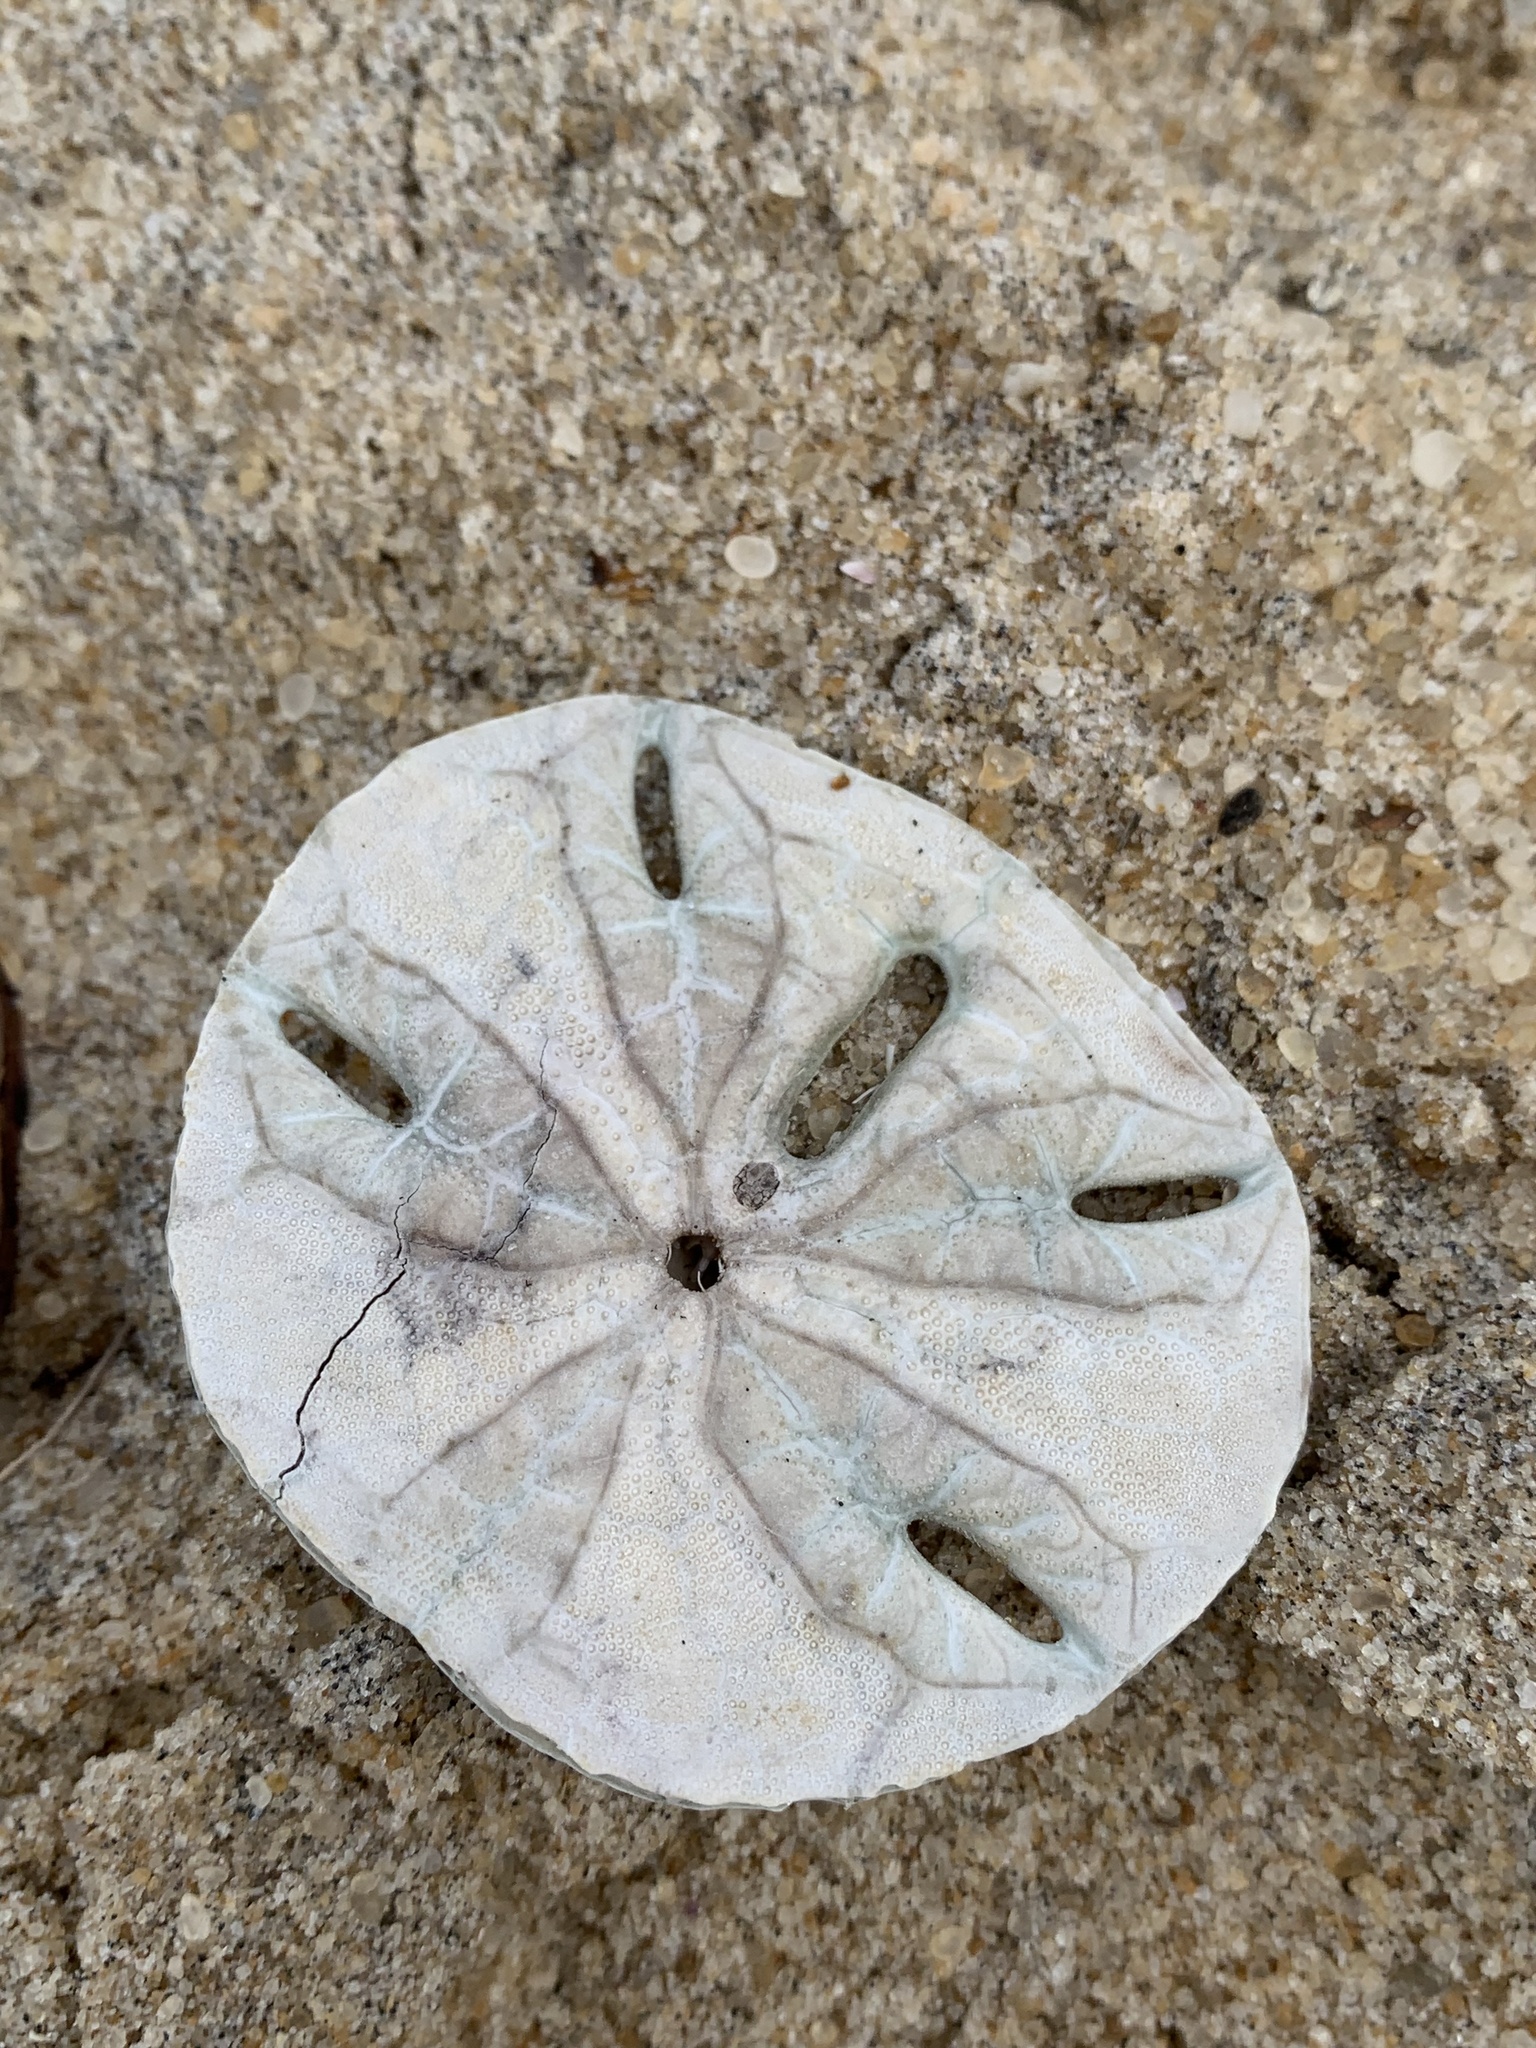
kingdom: Animalia
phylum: Echinodermata
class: Echinoidea
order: Echinolampadacea
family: Mellitidae
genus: Mellita
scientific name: Mellita quinquiesperforata
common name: Sand dollar
